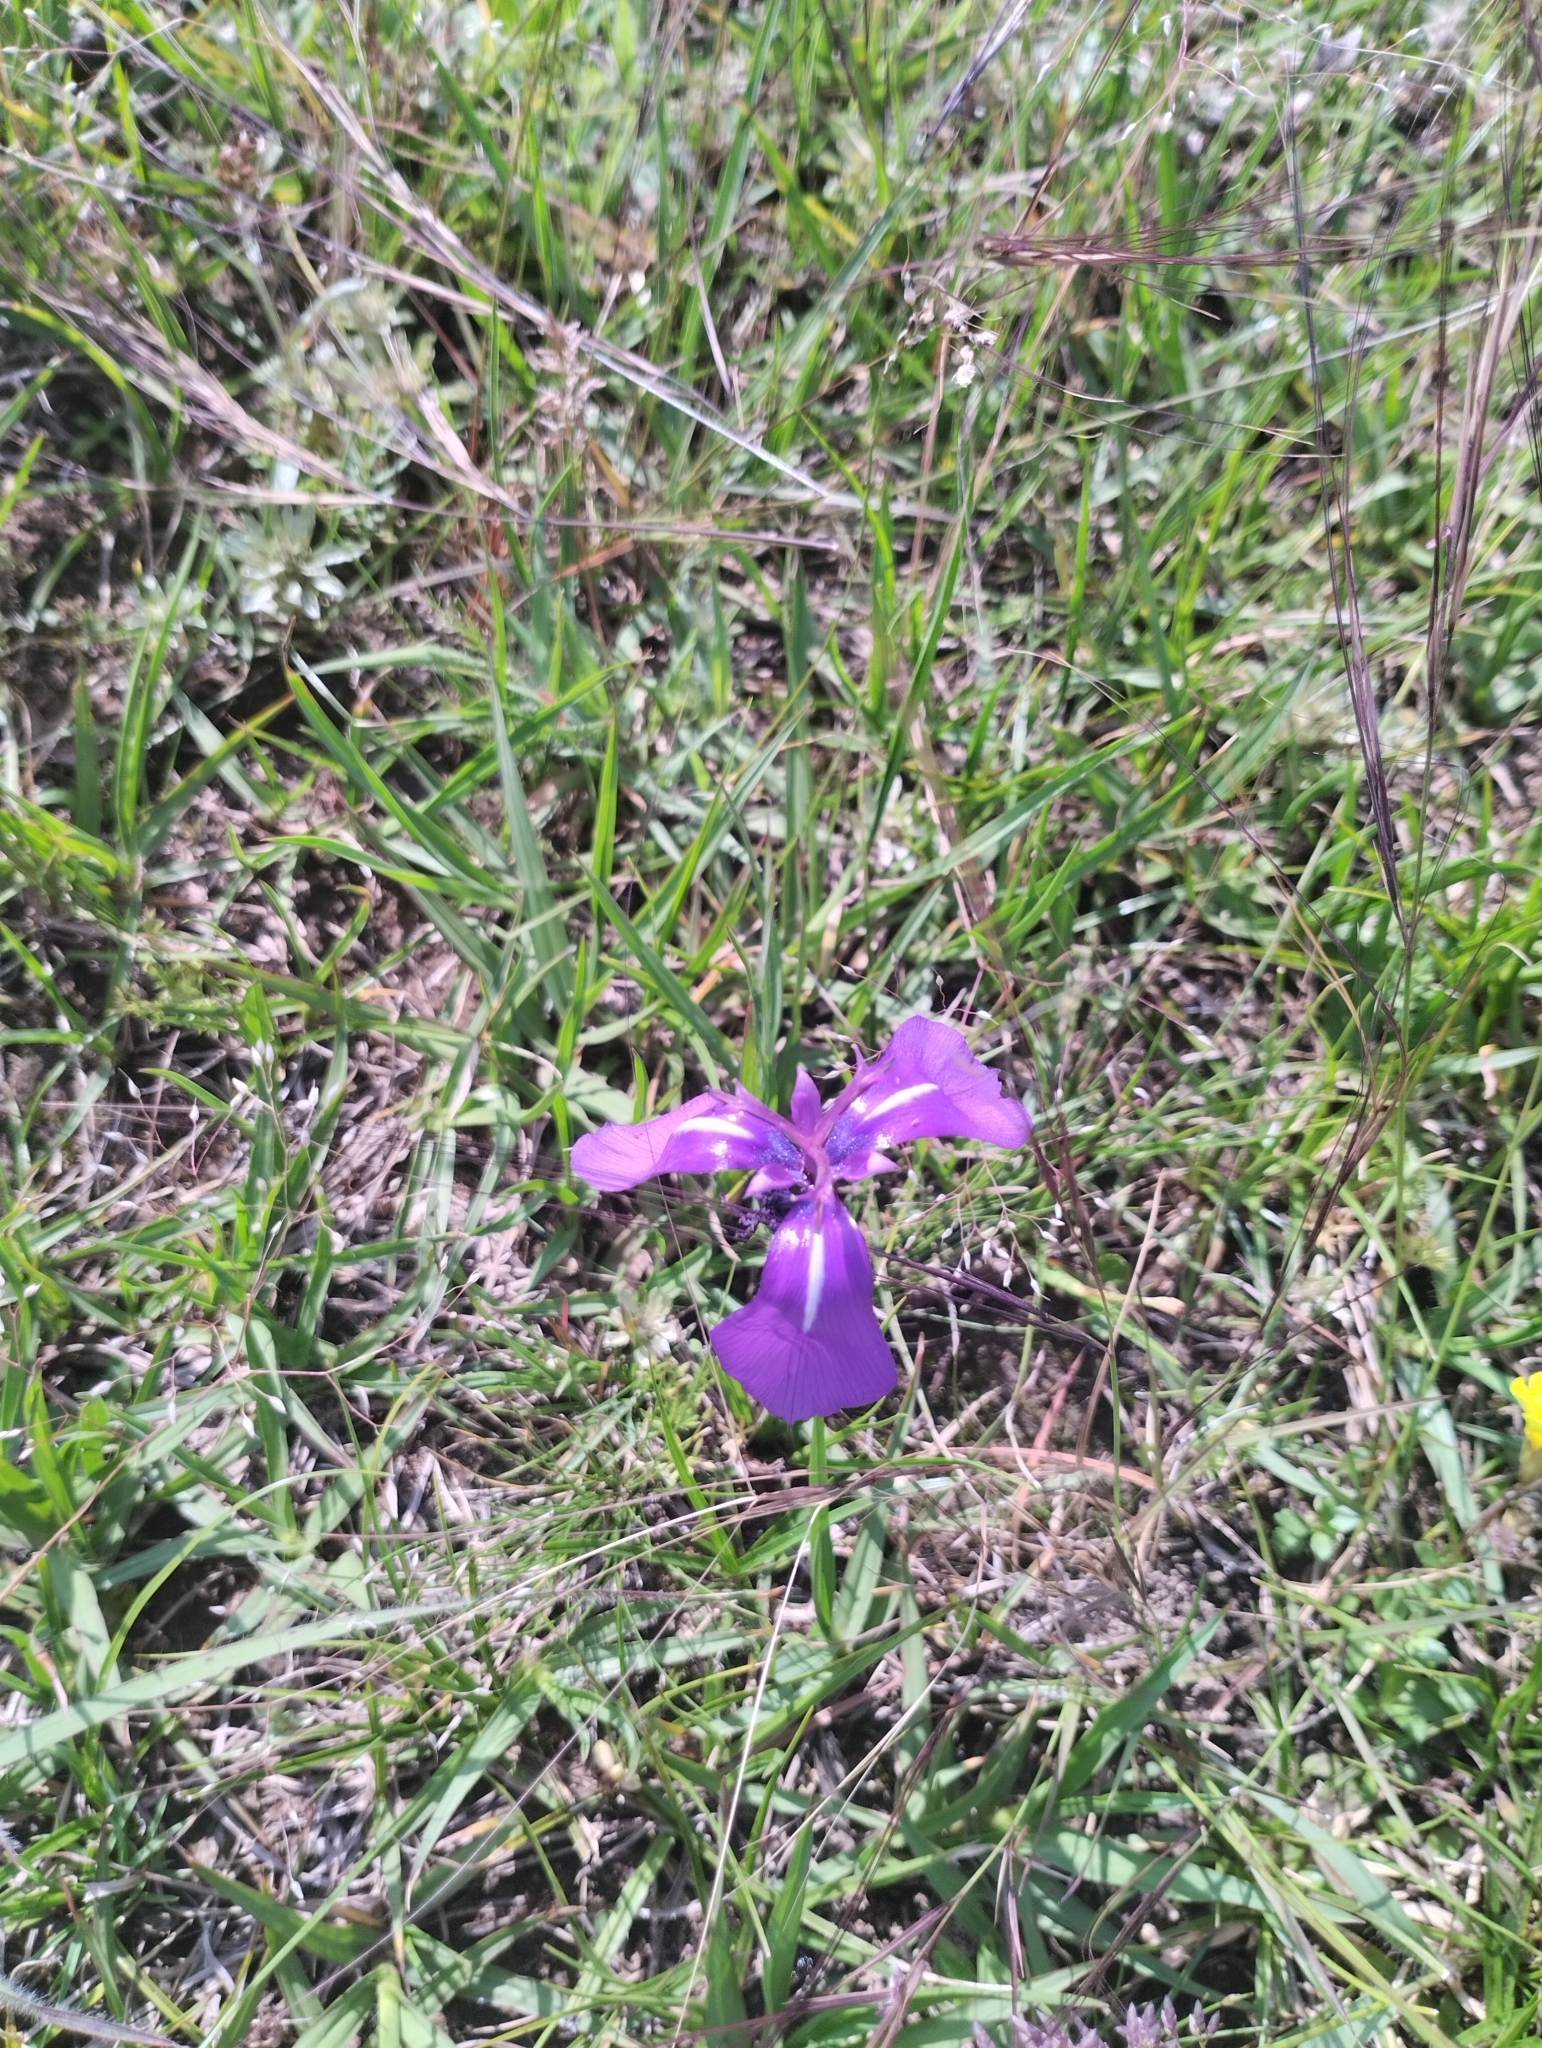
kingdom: Plantae
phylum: Tracheophyta
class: Liliopsida
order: Asparagales
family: Iridaceae
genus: Herbertia
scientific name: Herbertia pulchella
